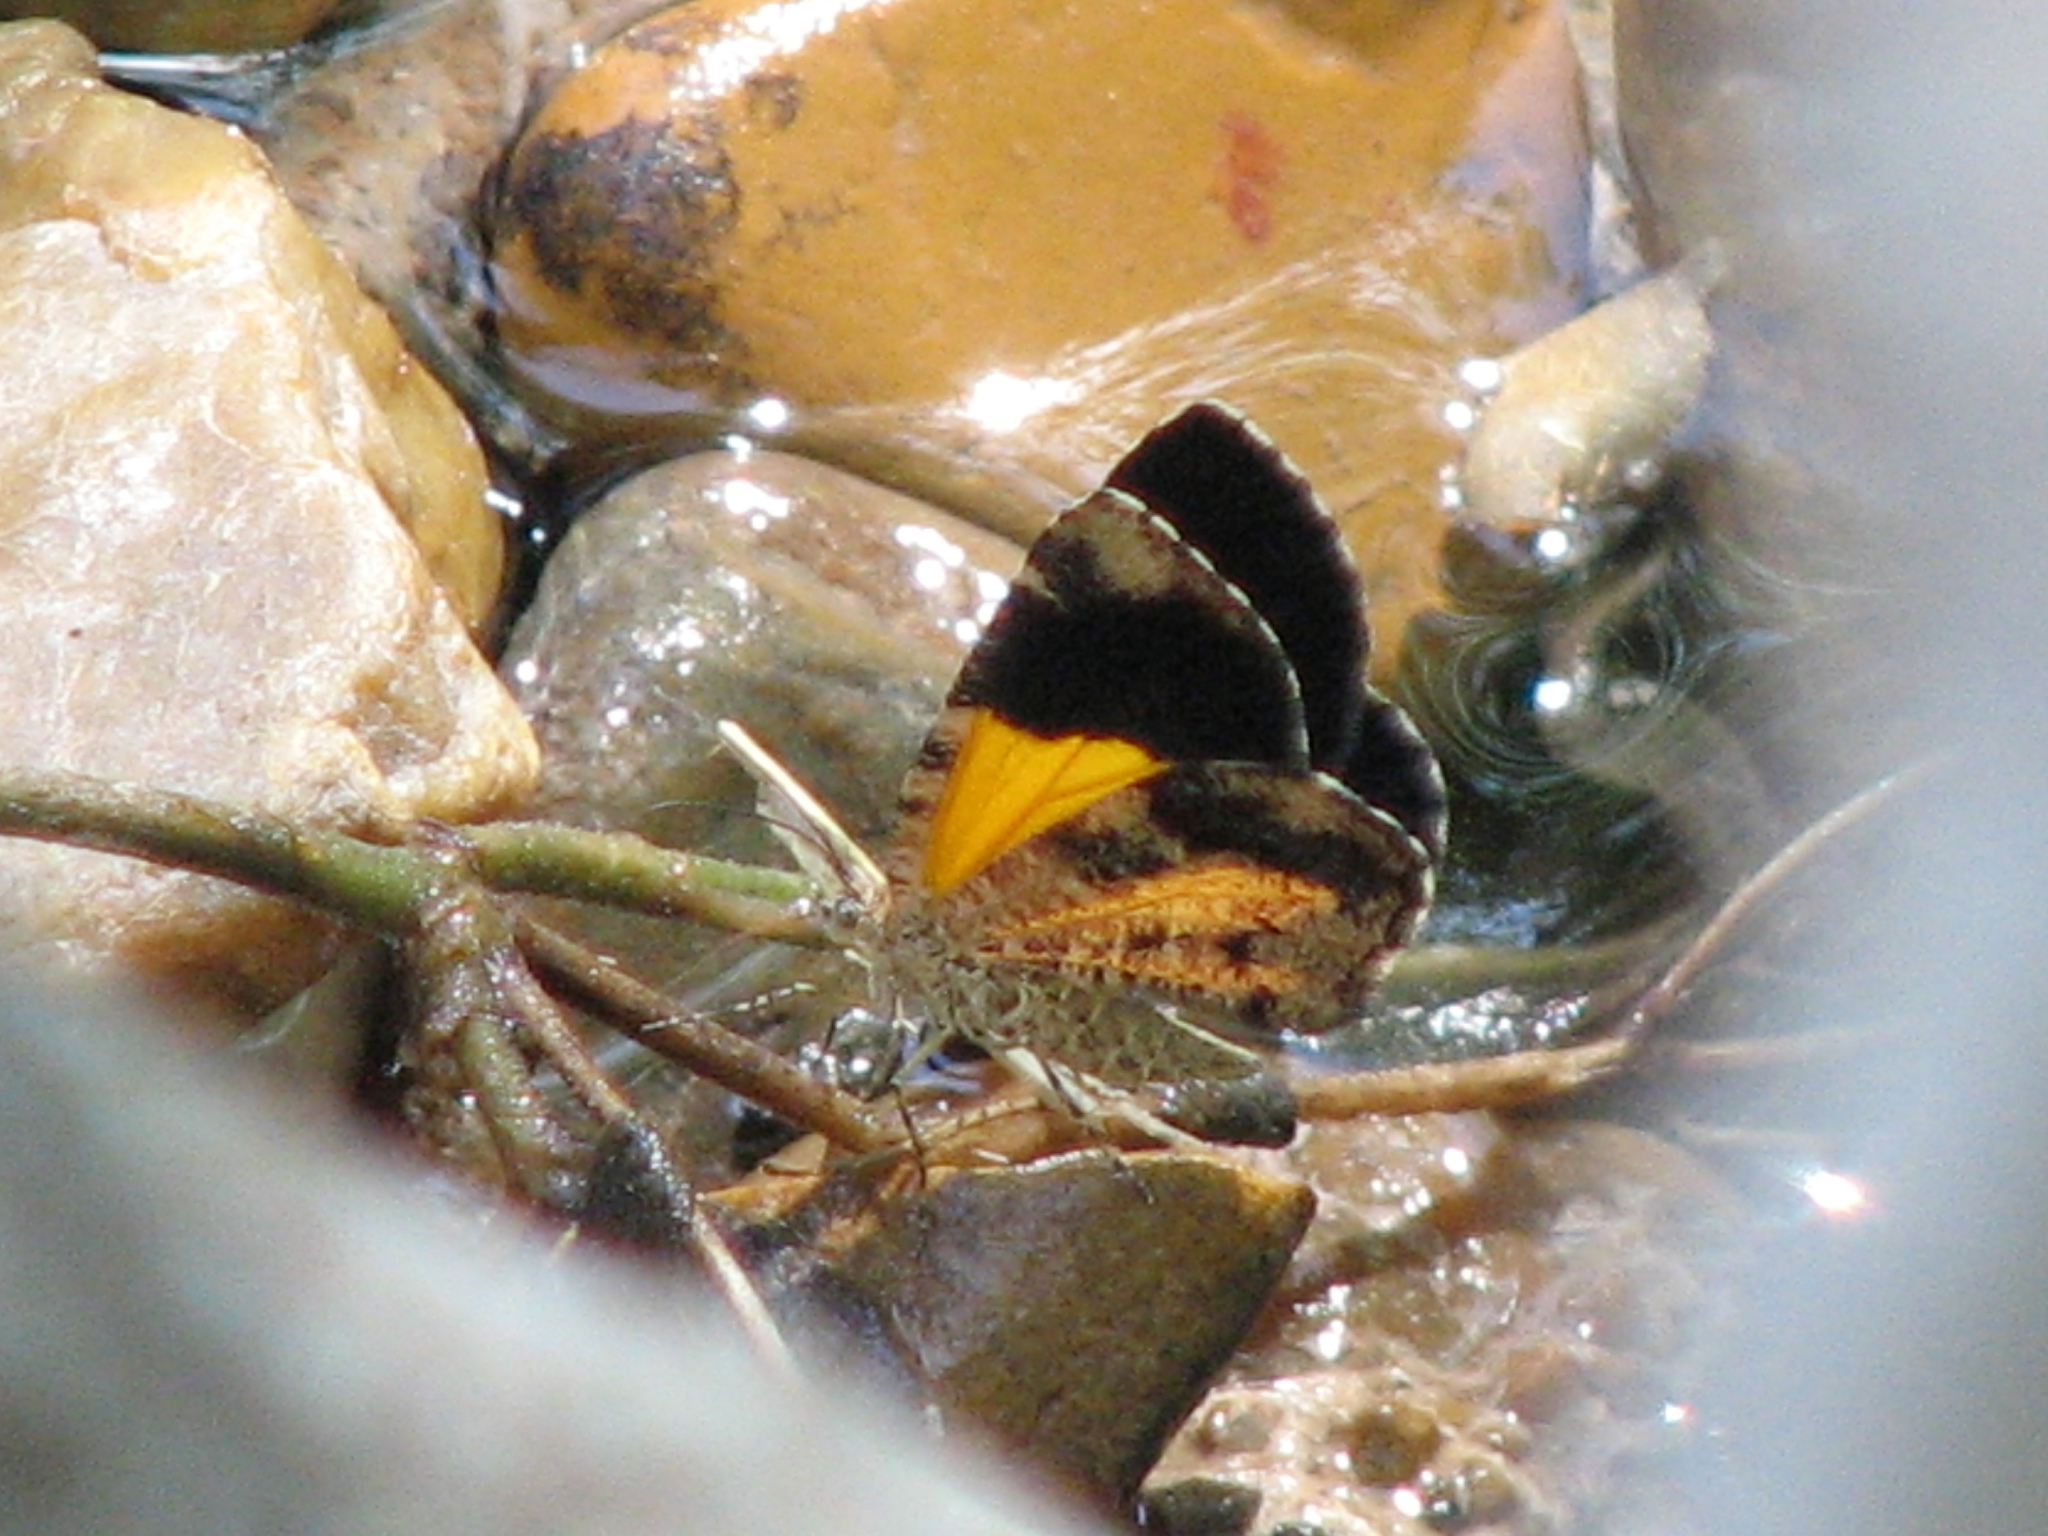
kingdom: Animalia
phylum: Arthropoda
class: Insecta
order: Lepidoptera
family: Geometridae
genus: Heterusia
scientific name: Heterusia atalantata
